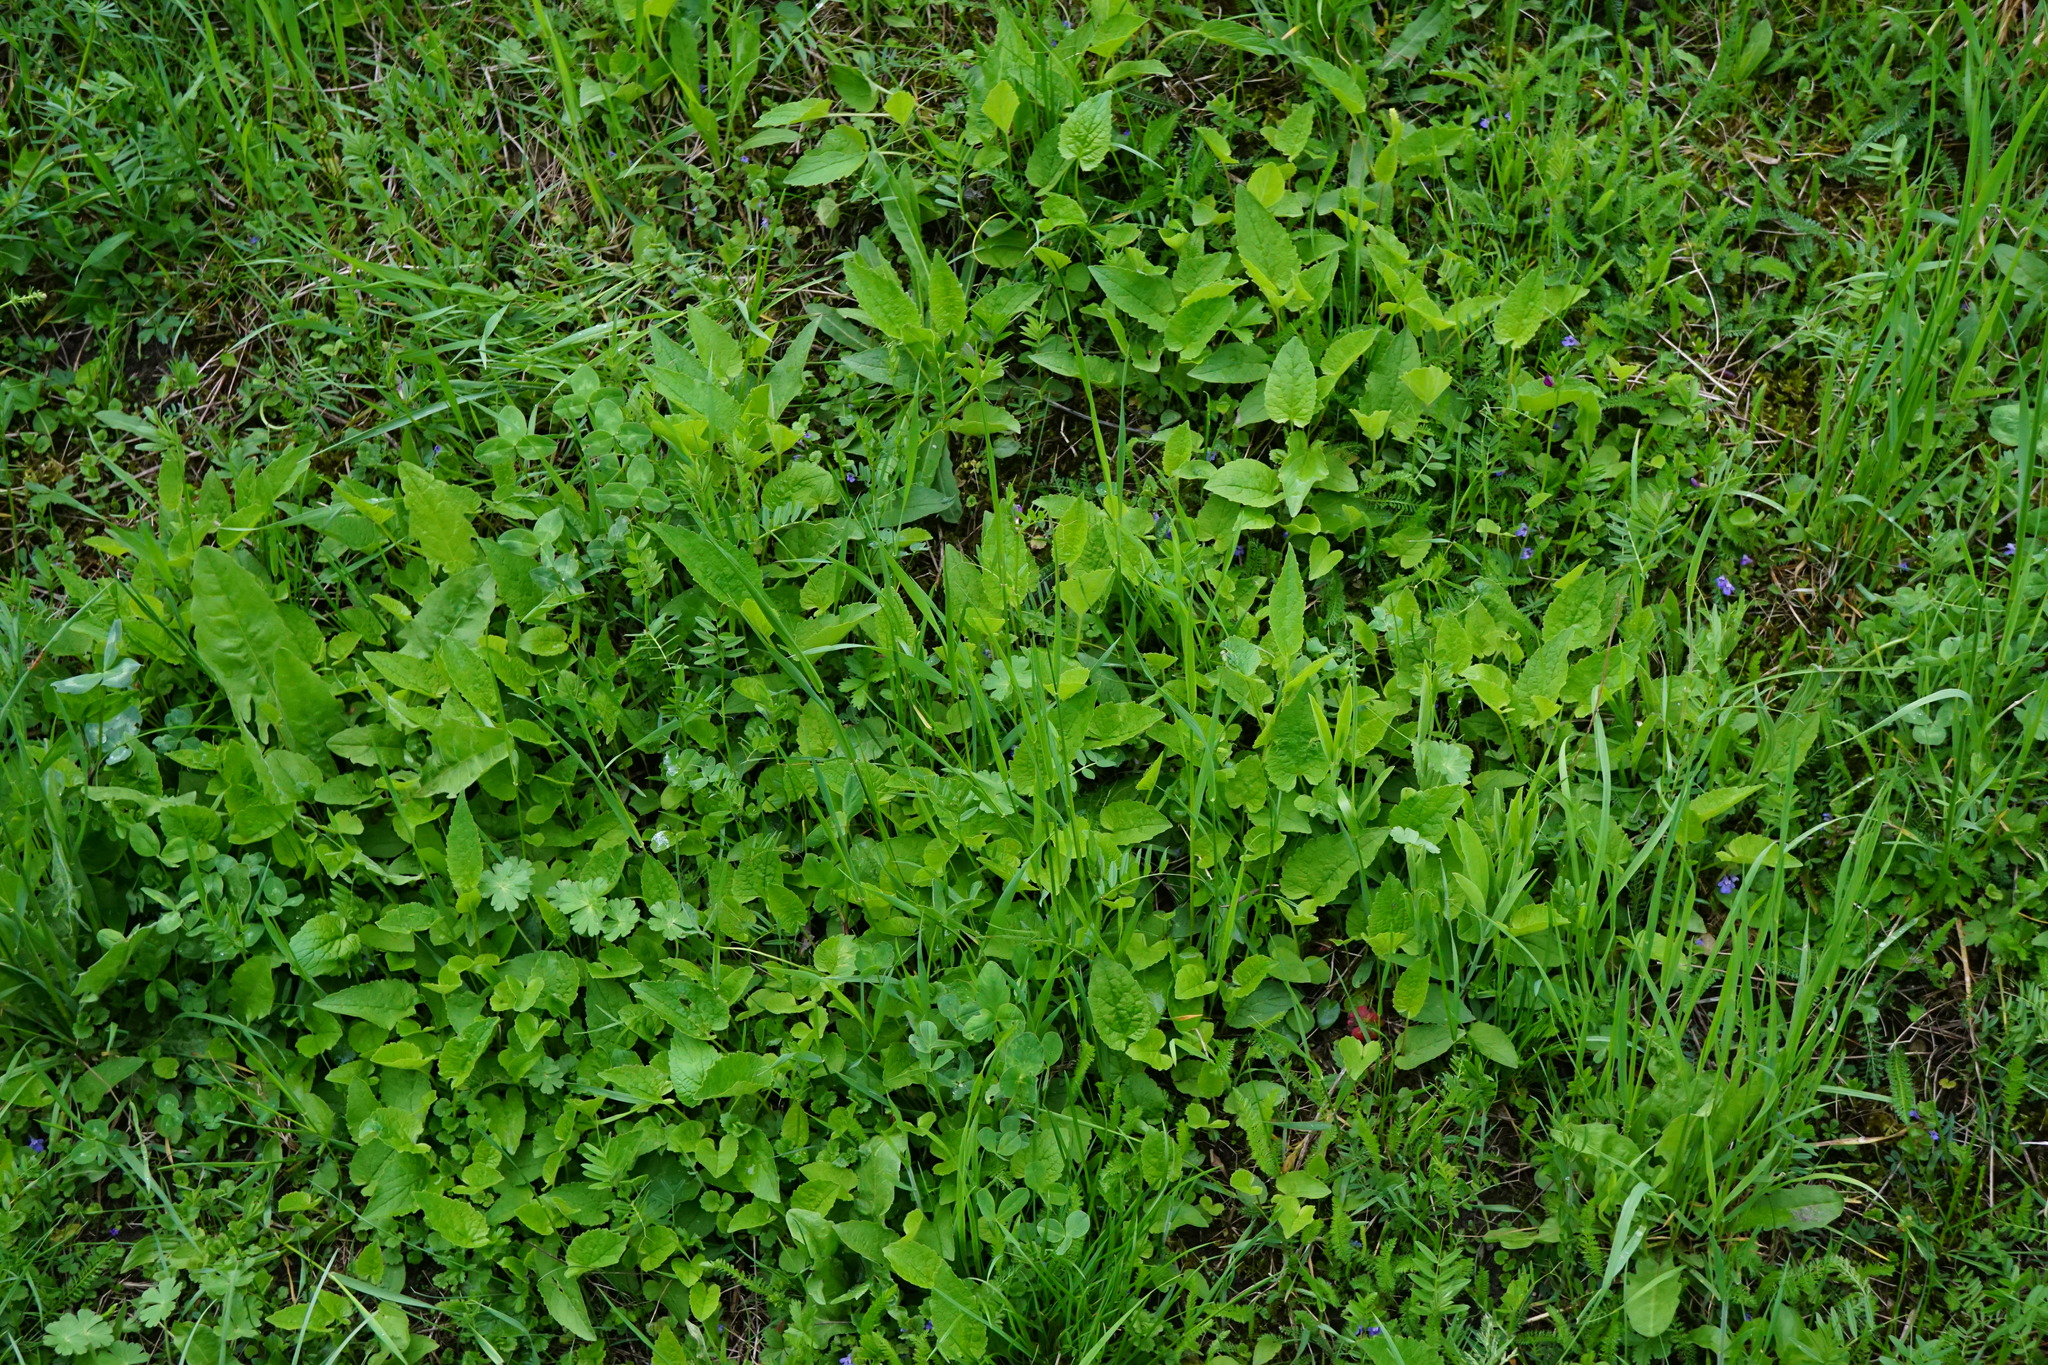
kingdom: Plantae
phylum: Tracheophyta
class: Magnoliopsida
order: Asterales
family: Campanulaceae
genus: Campanula
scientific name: Campanula rapunculoides
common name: Creeping bellflower
